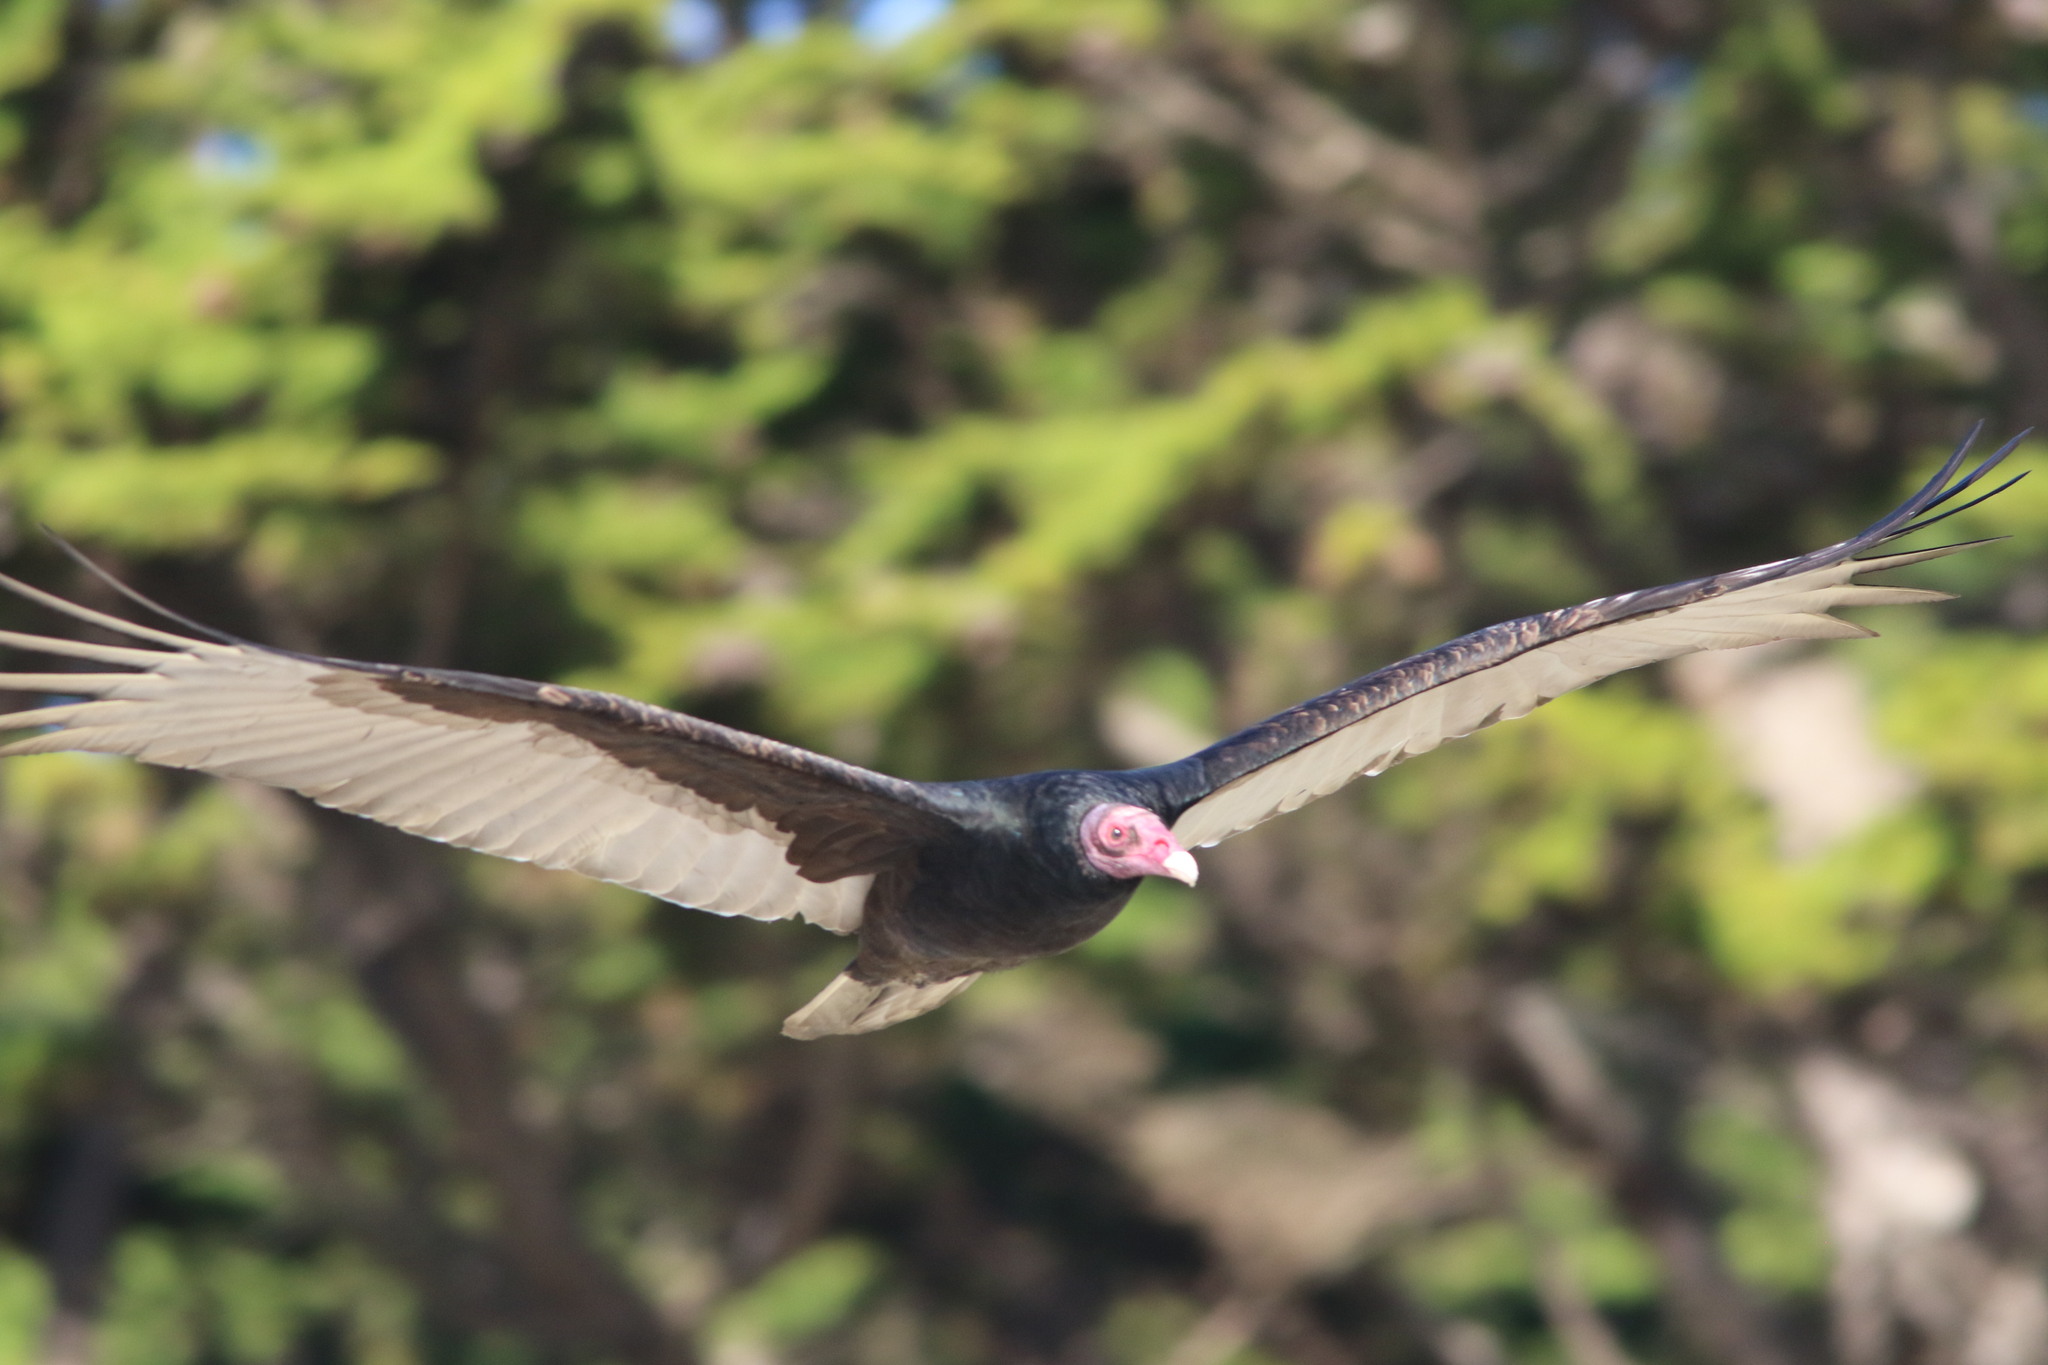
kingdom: Animalia
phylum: Chordata
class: Aves
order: Accipitriformes
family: Cathartidae
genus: Cathartes
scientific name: Cathartes aura
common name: Turkey vulture
